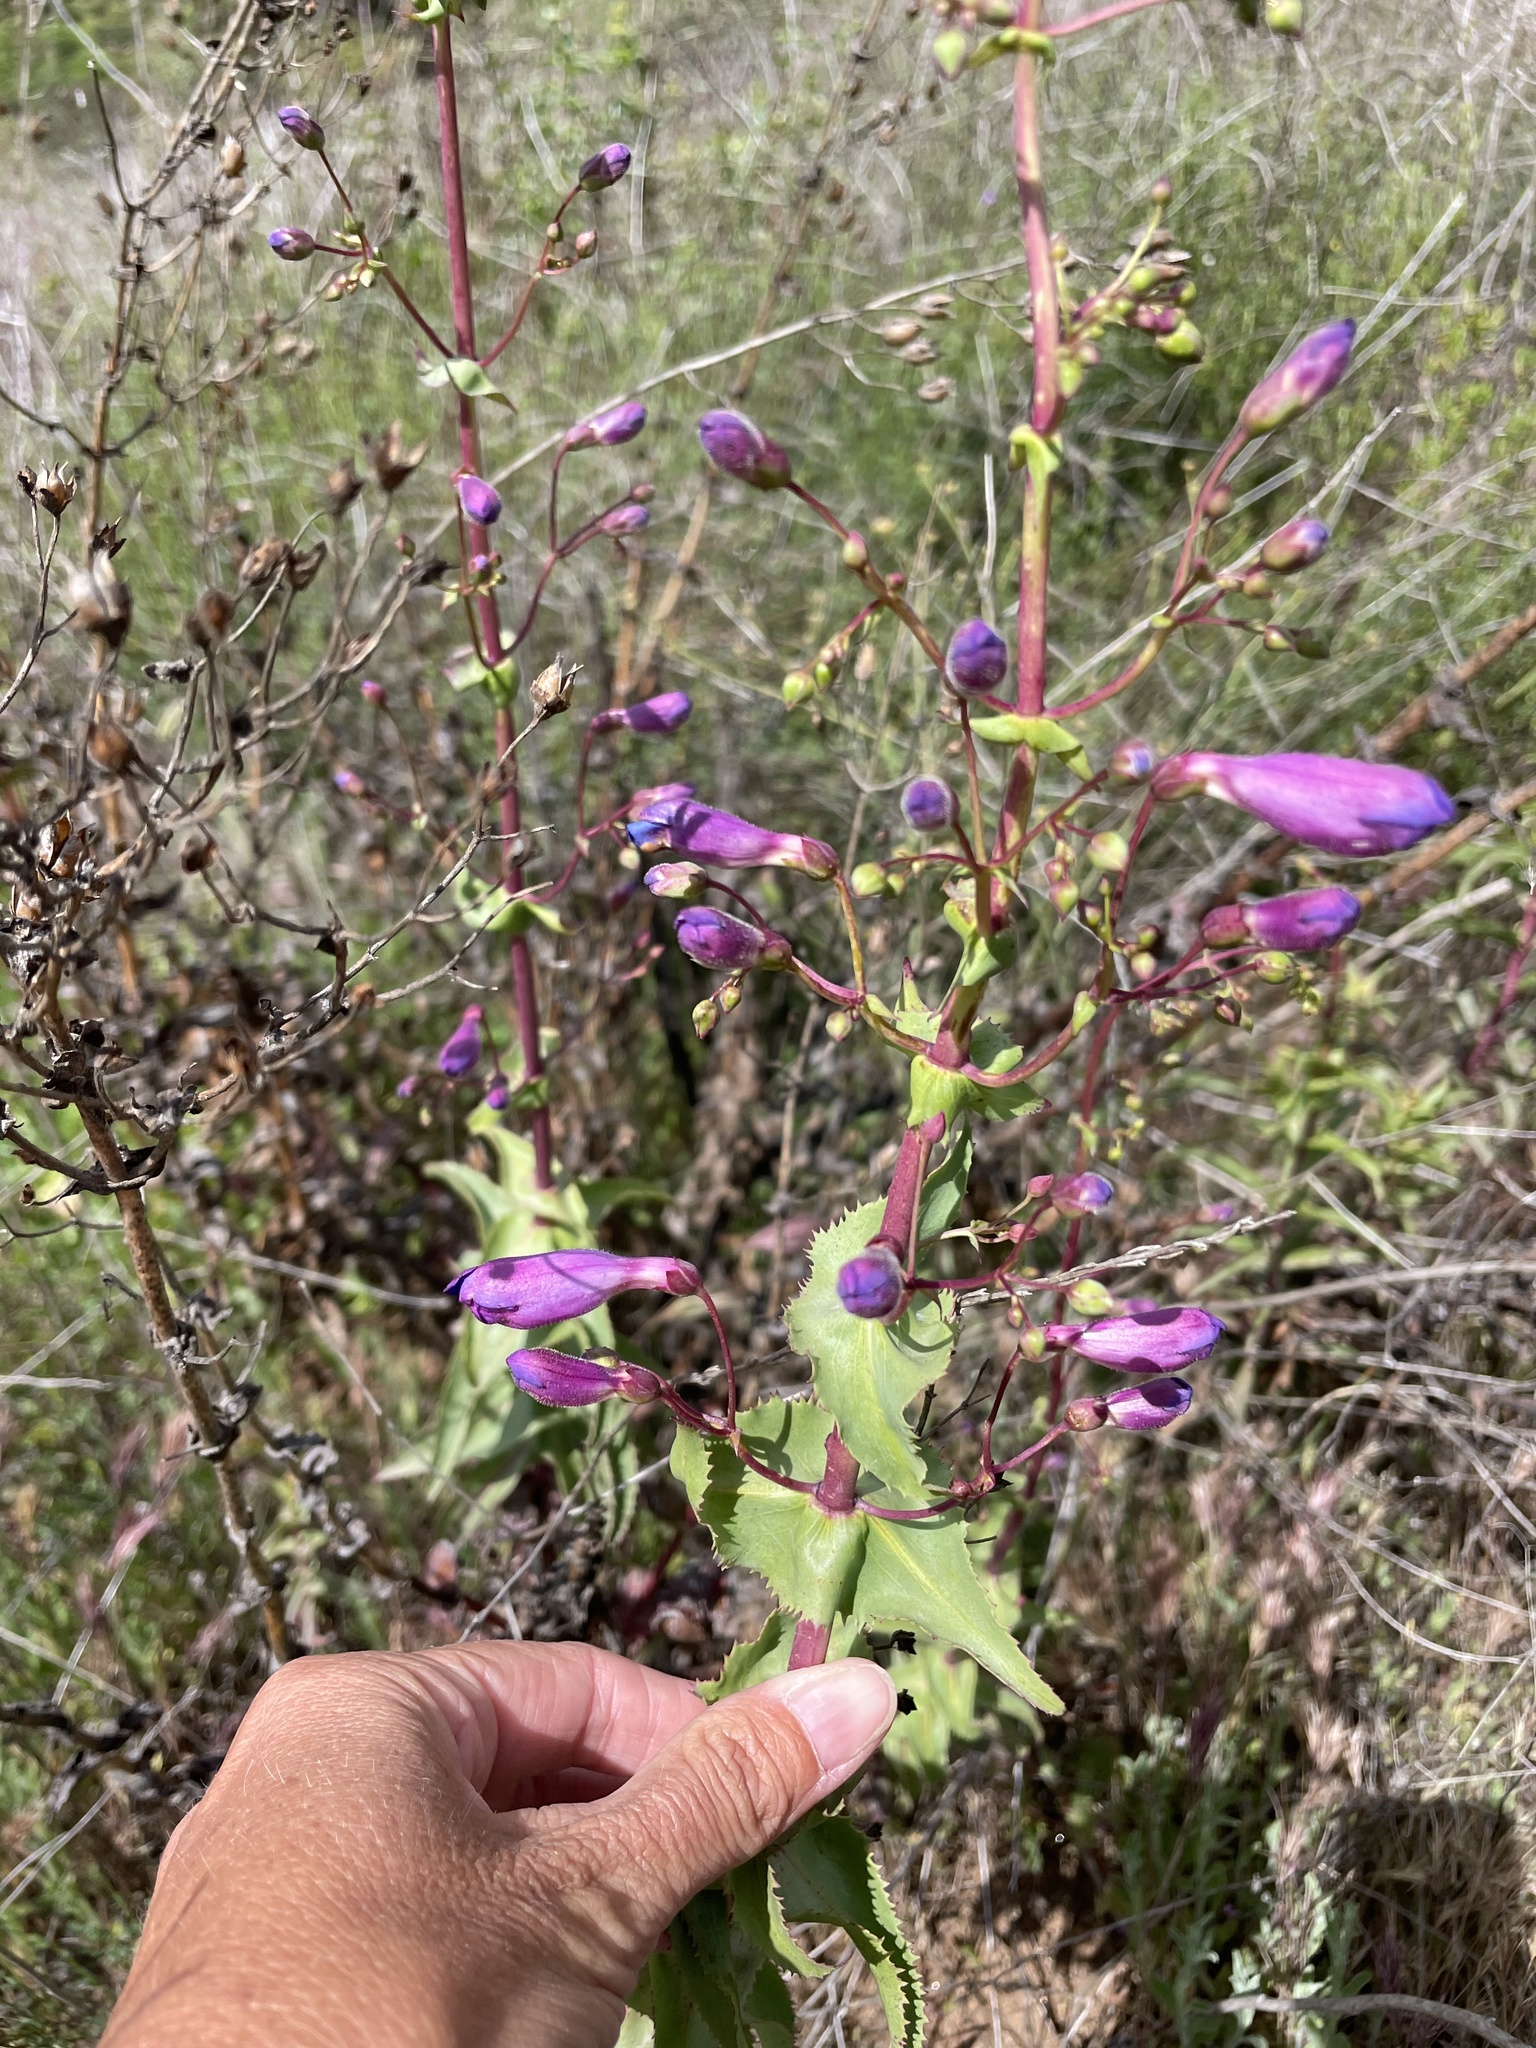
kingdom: Plantae
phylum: Tracheophyta
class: Magnoliopsida
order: Lamiales
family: Plantaginaceae
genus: Penstemon
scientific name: Penstemon spectabilis
